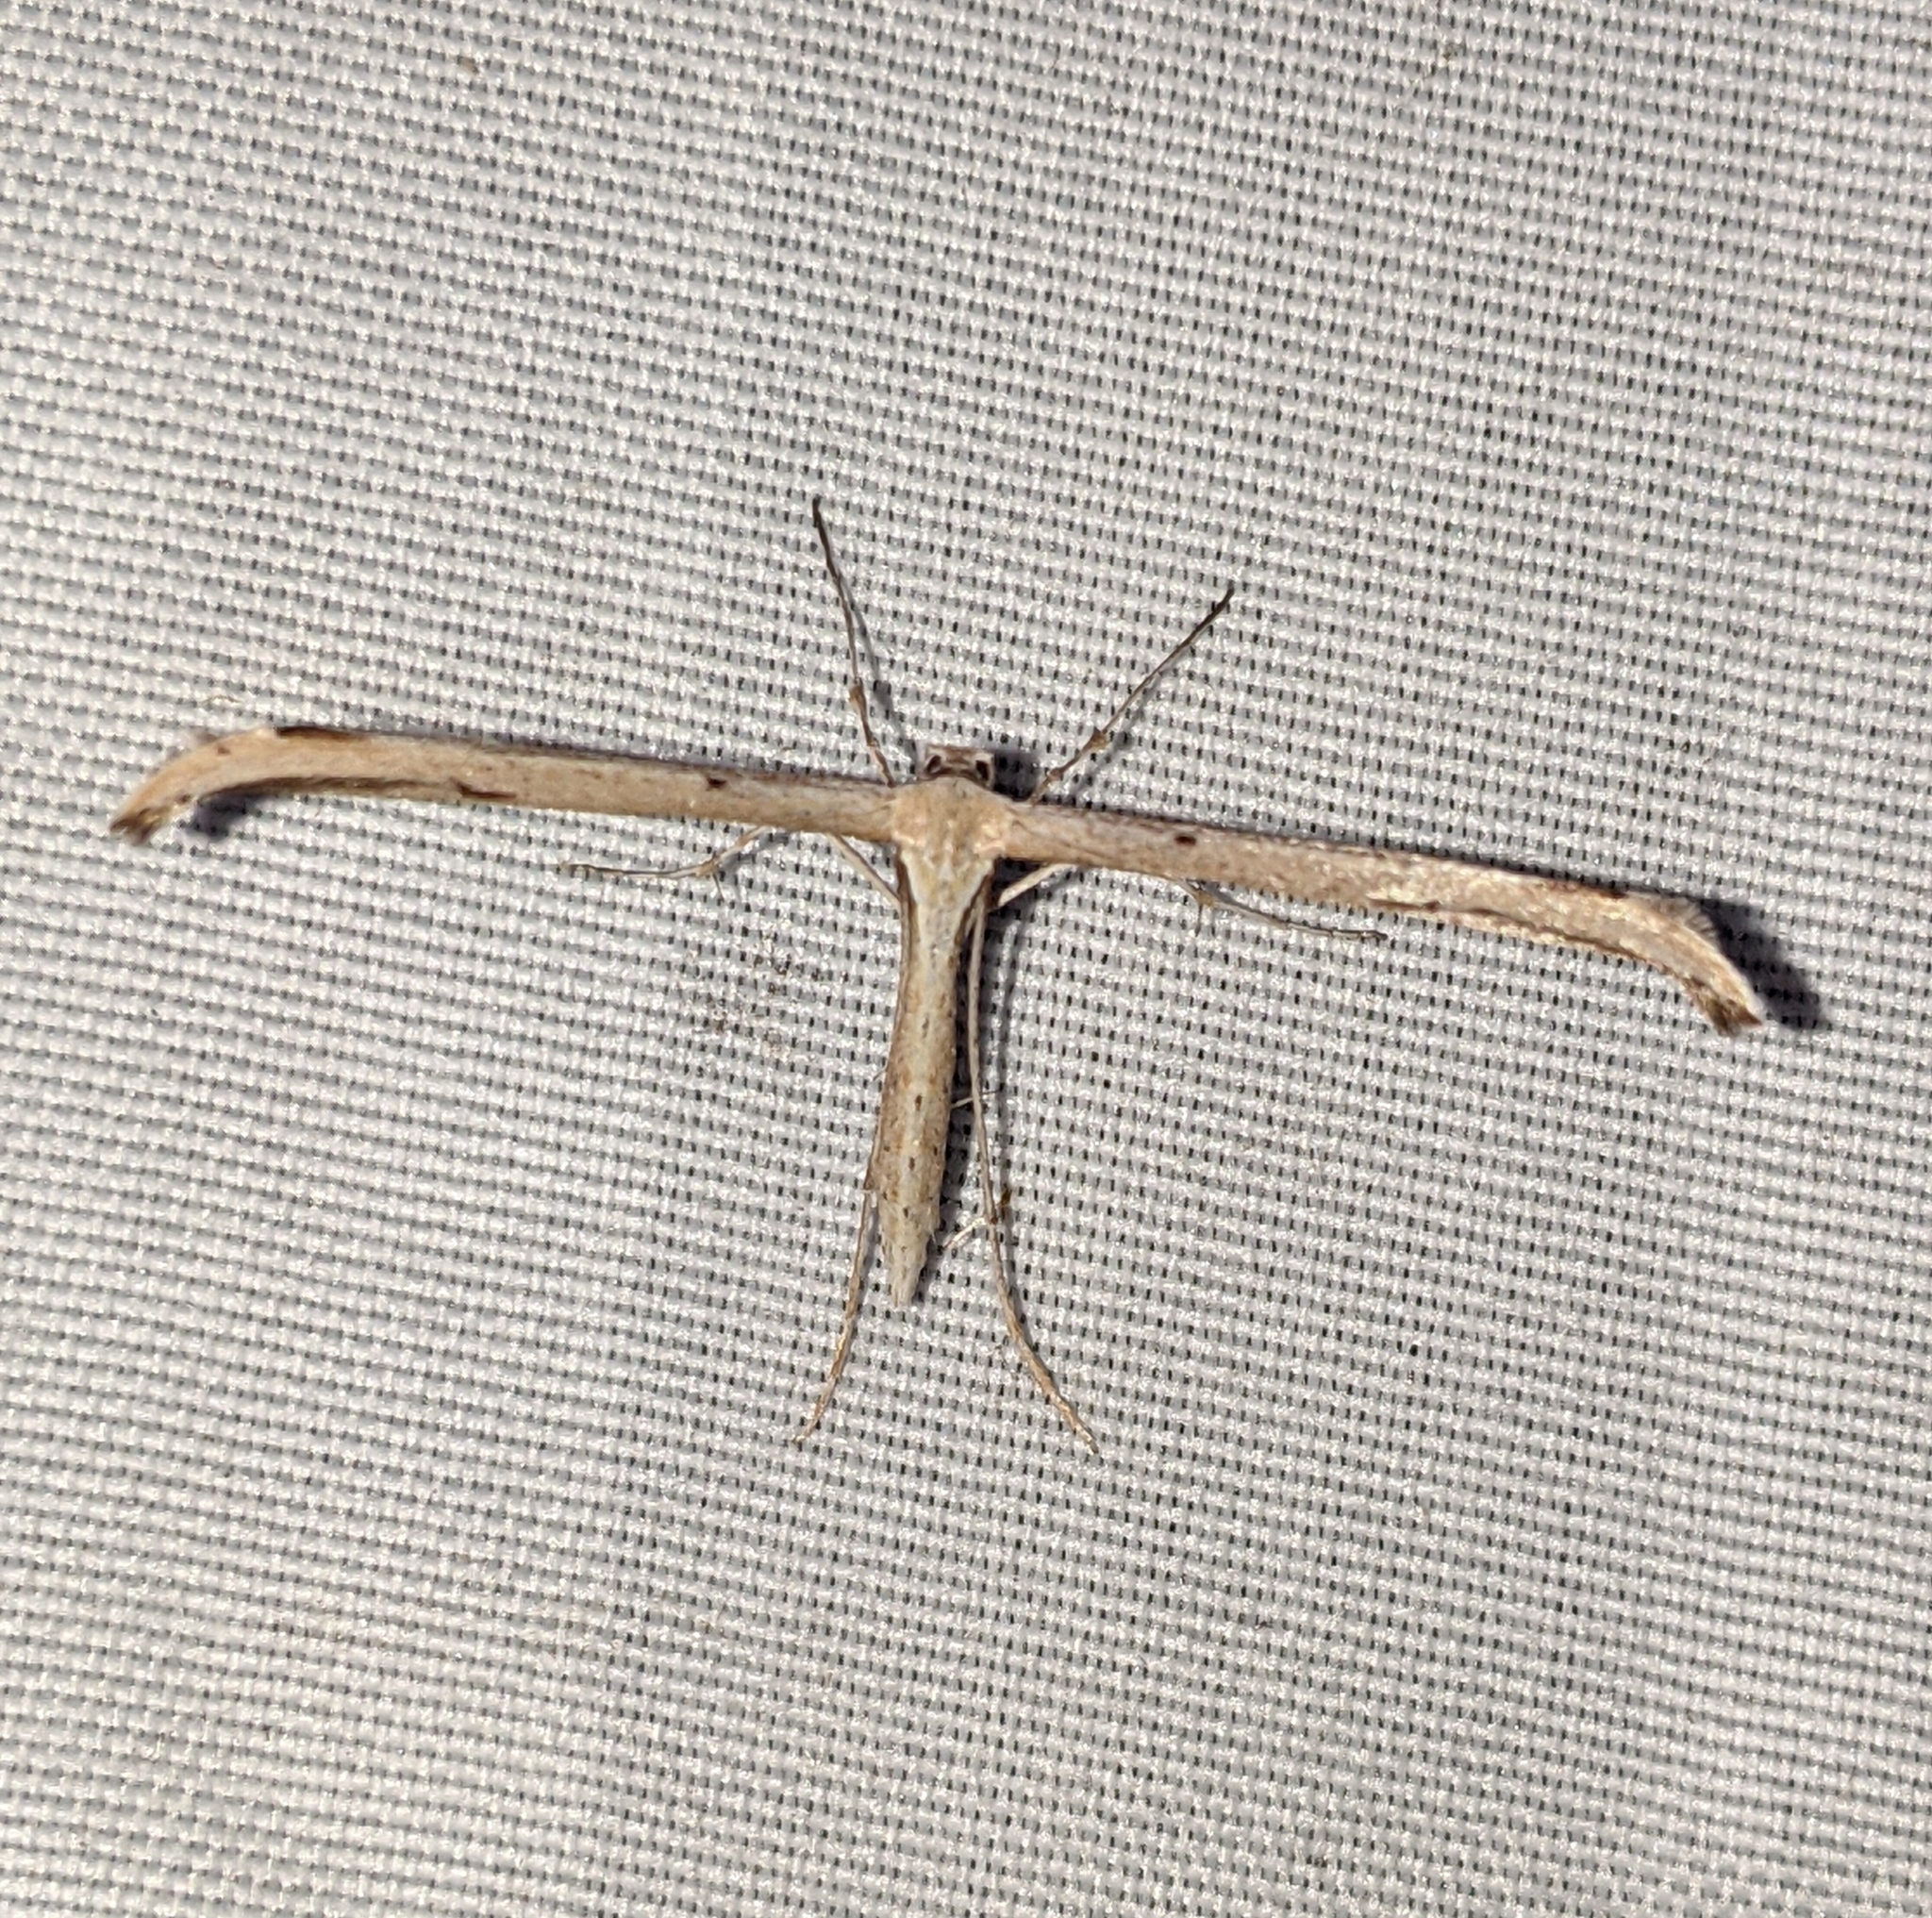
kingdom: Animalia
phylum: Arthropoda
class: Insecta
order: Lepidoptera
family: Pterophoridae
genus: Emmelina
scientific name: Emmelina monodactyla
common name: Common plume
